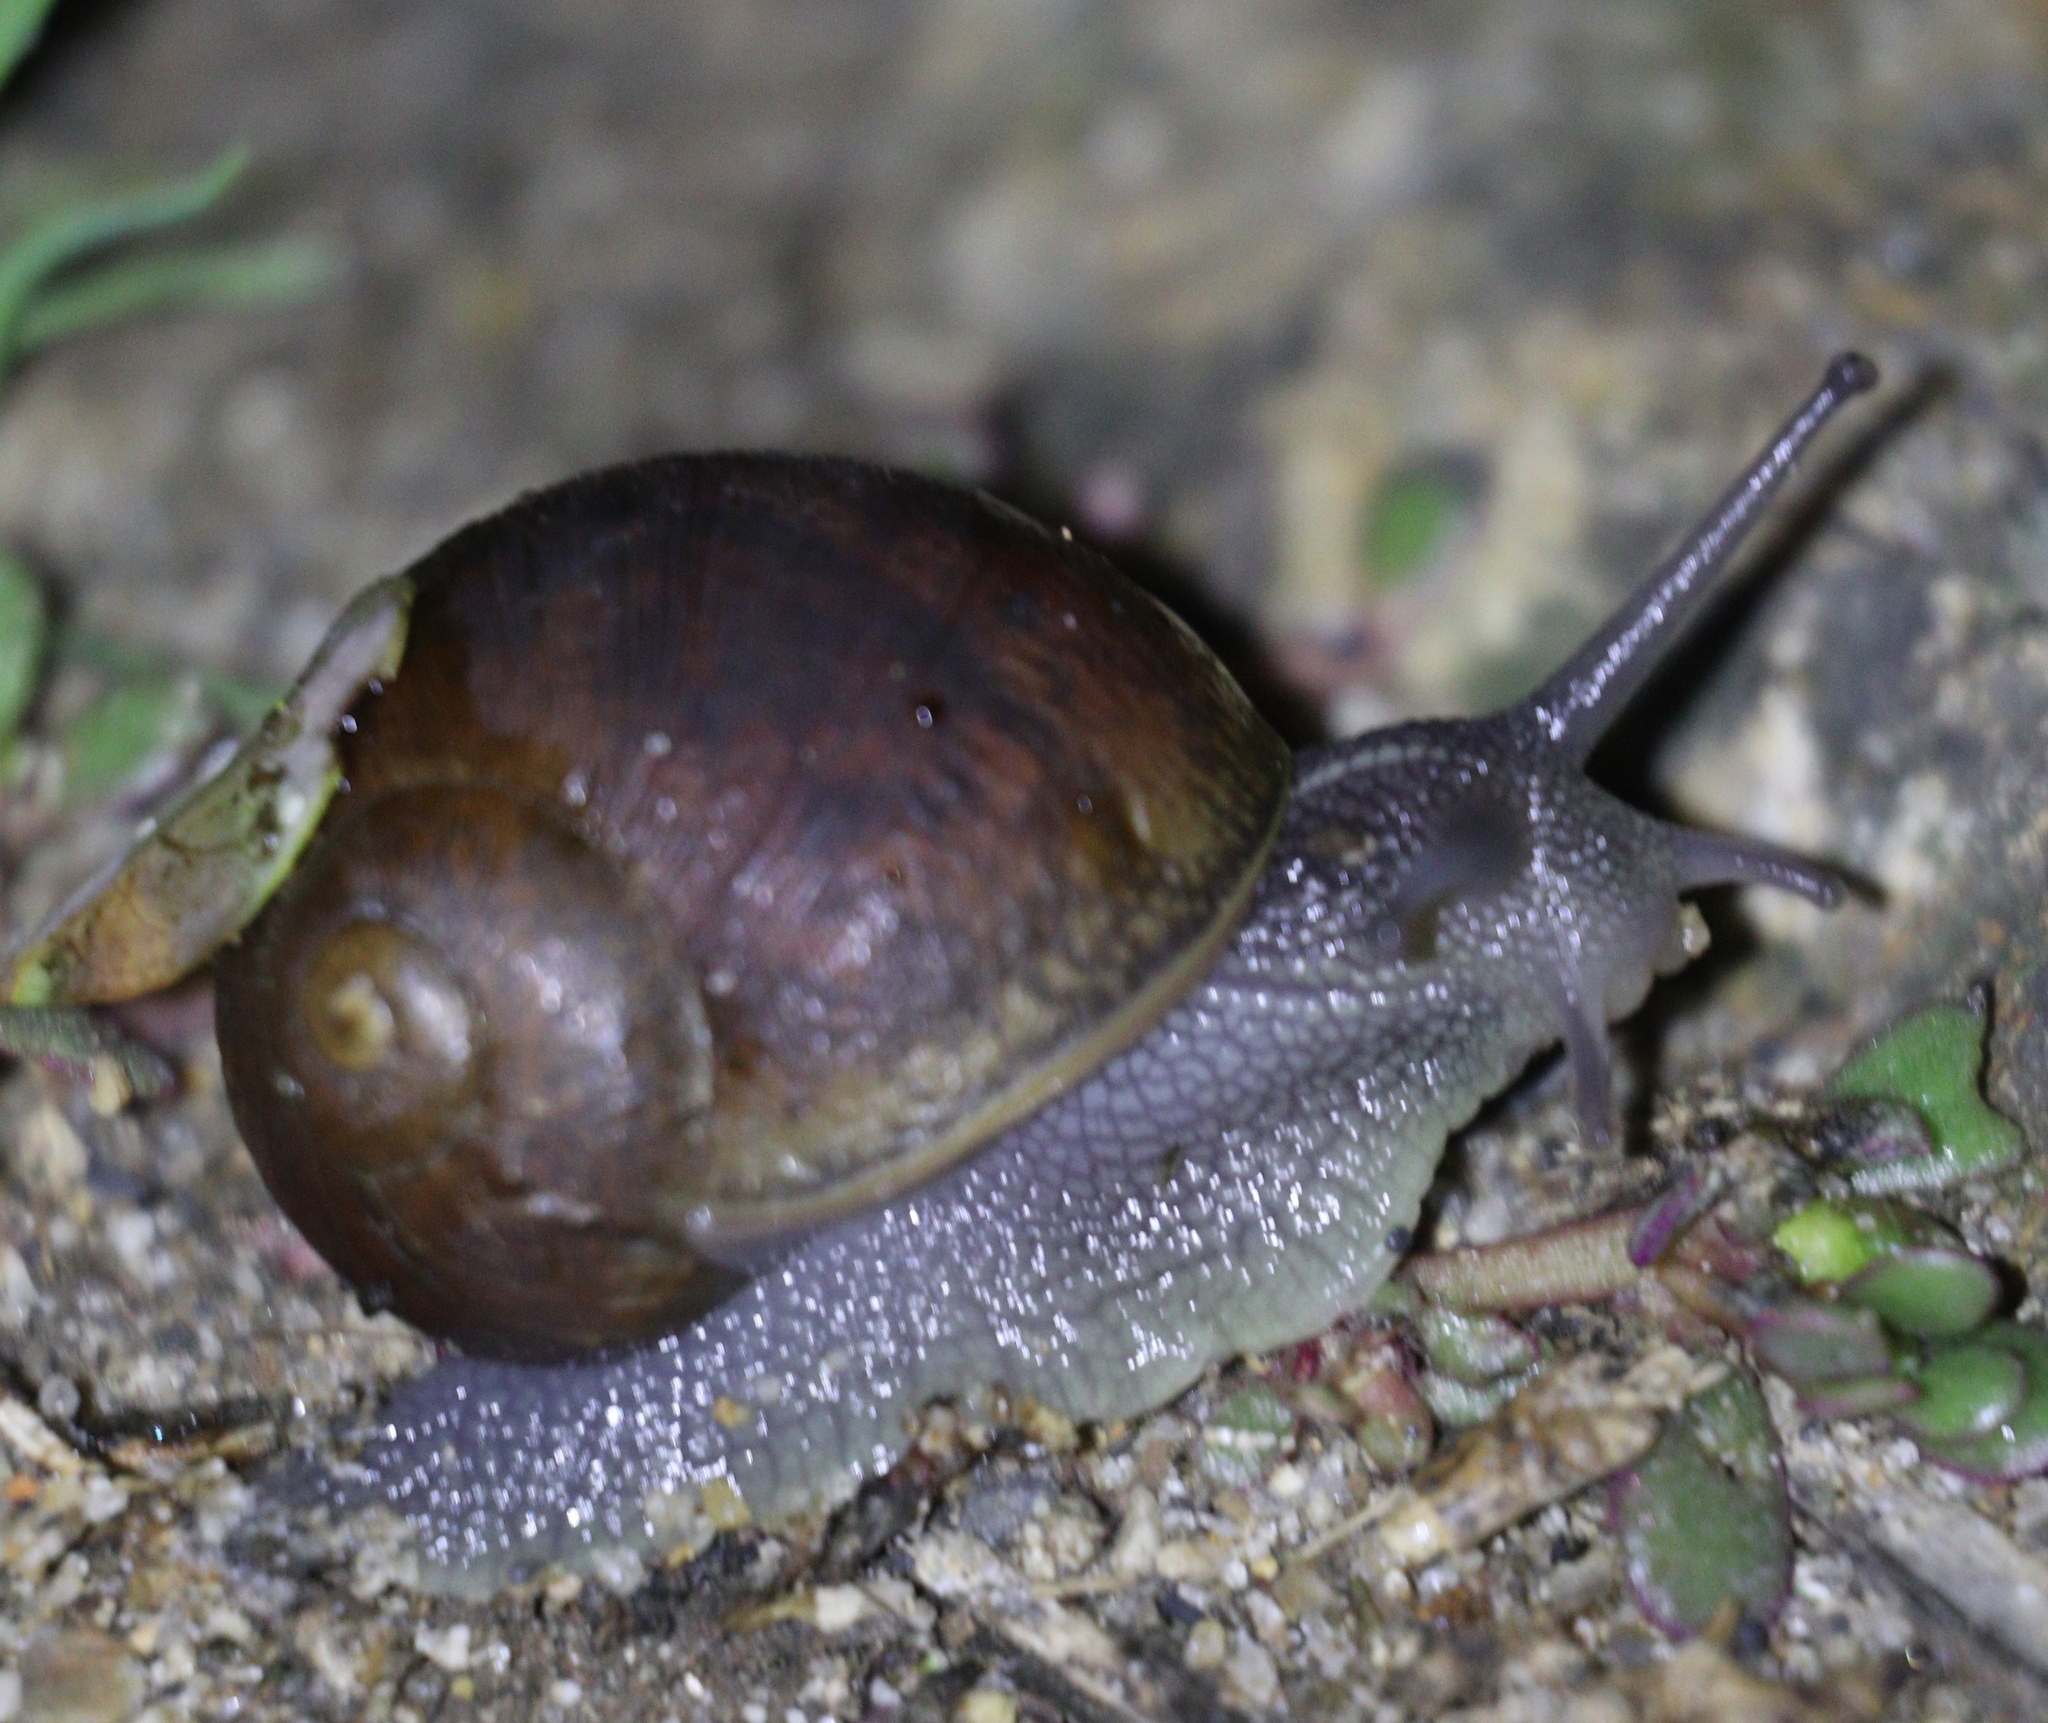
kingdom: Animalia
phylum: Mollusca
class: Gastropoda
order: Stylommatophora
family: Helicidae
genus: Cornu
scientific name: Cornu aspersum
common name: Brown garden snail
